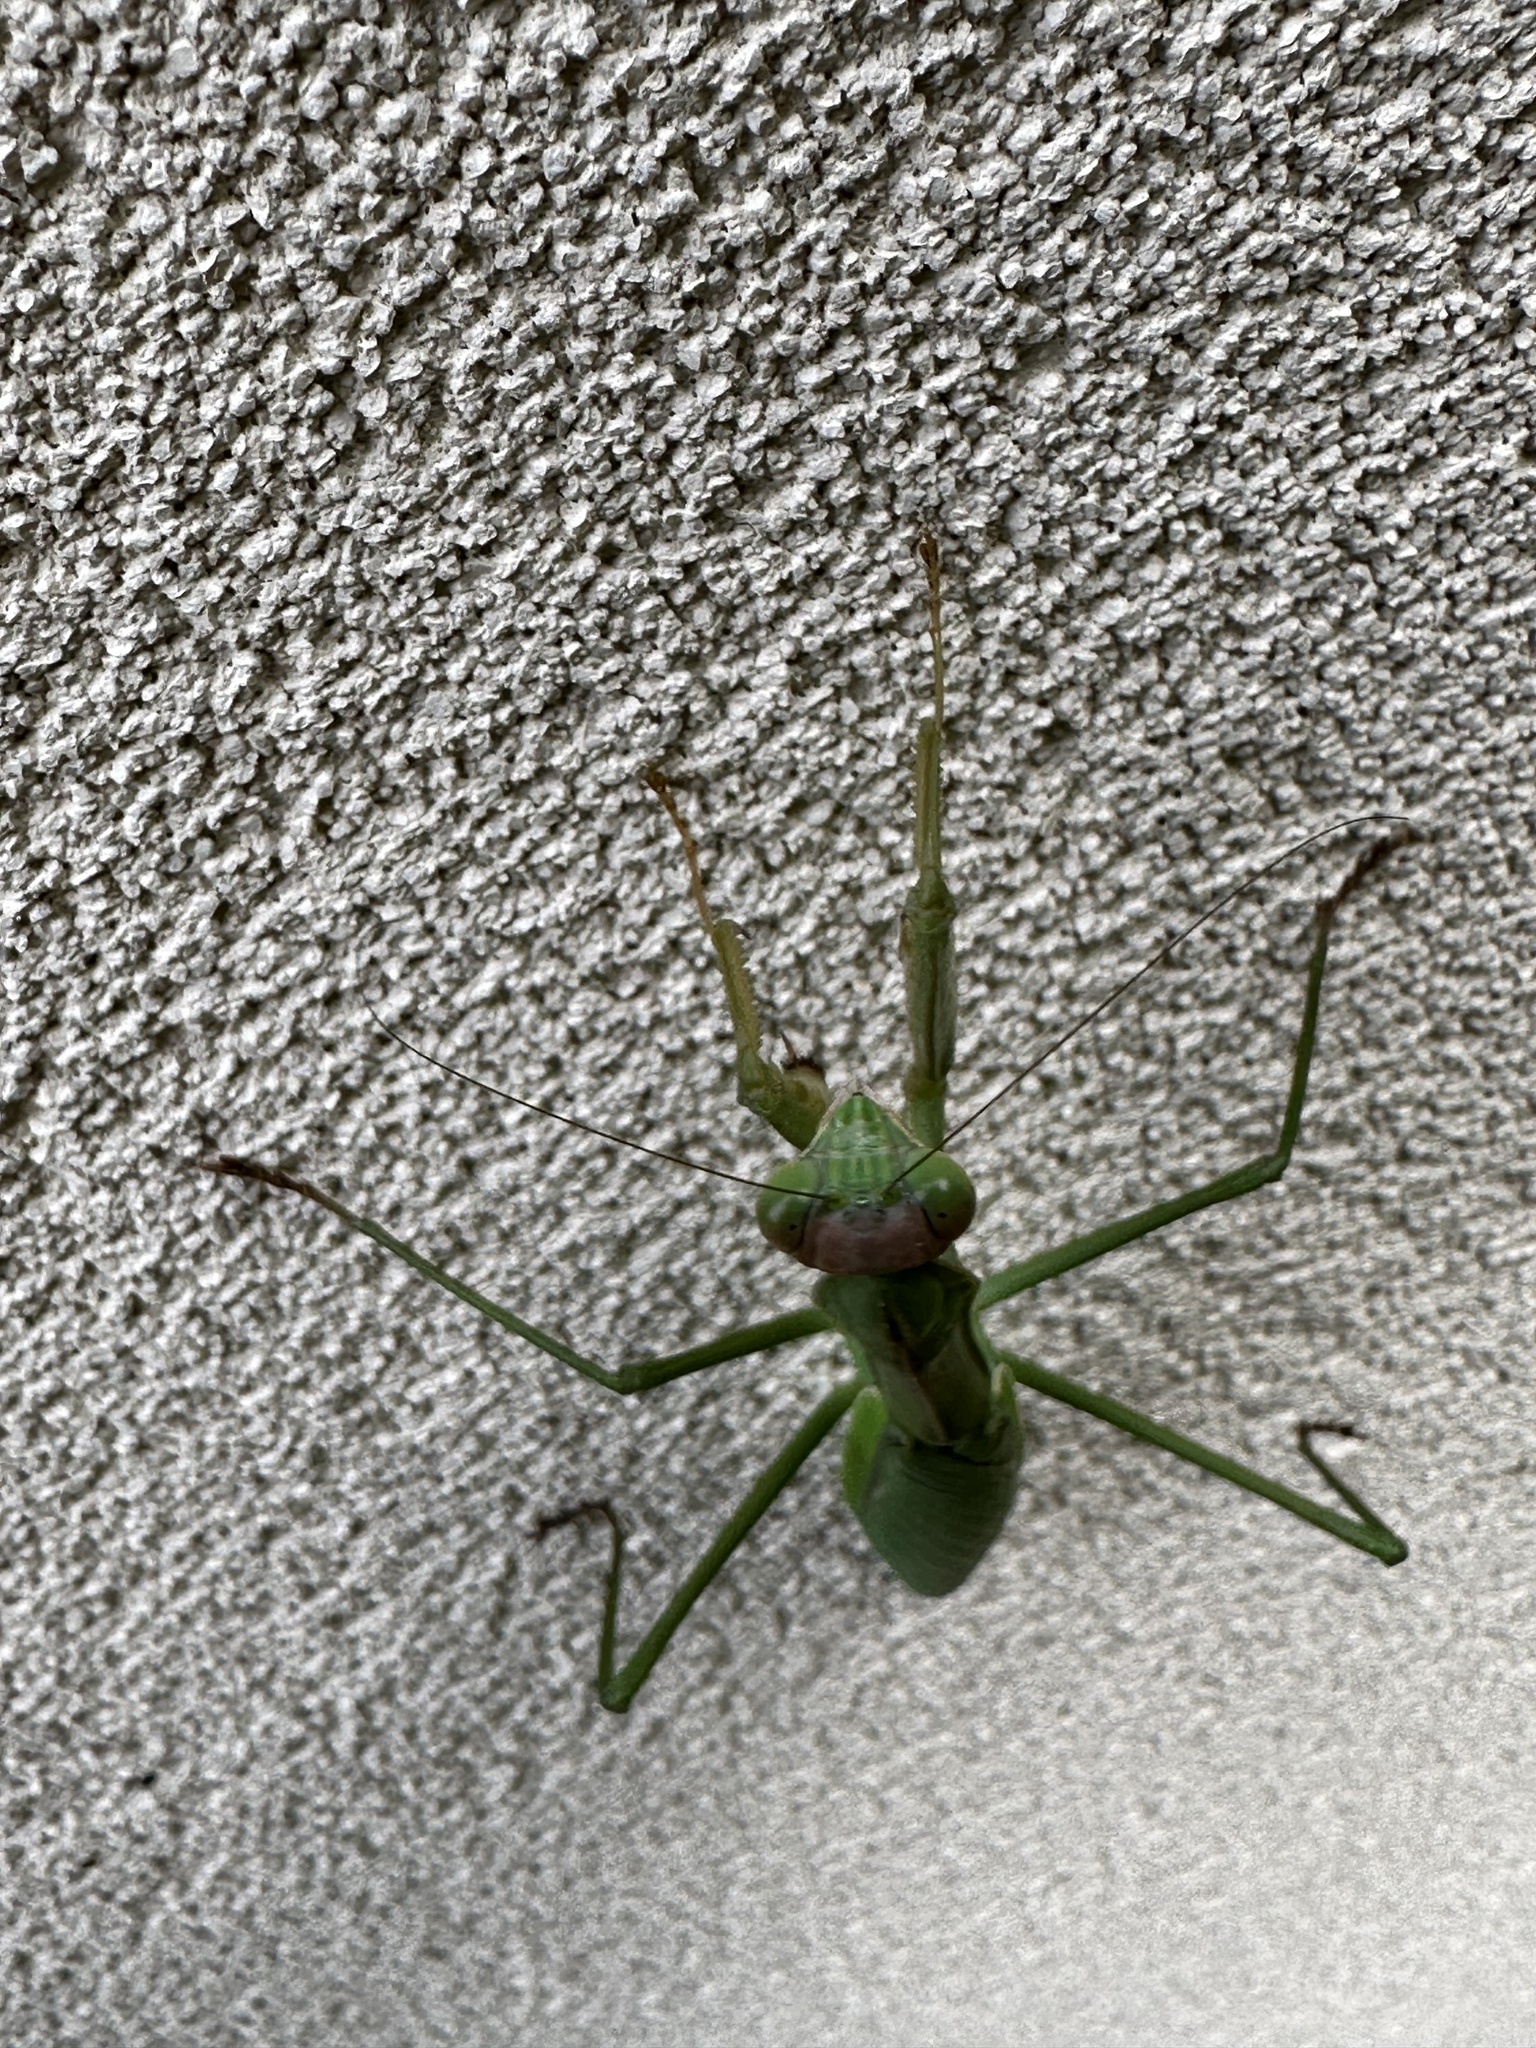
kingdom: Animalia
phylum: Arthropoda
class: Insecta
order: Mantodea
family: Mantidae
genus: Tenodera
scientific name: Tenodera sinensis
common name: Chinese mantis
